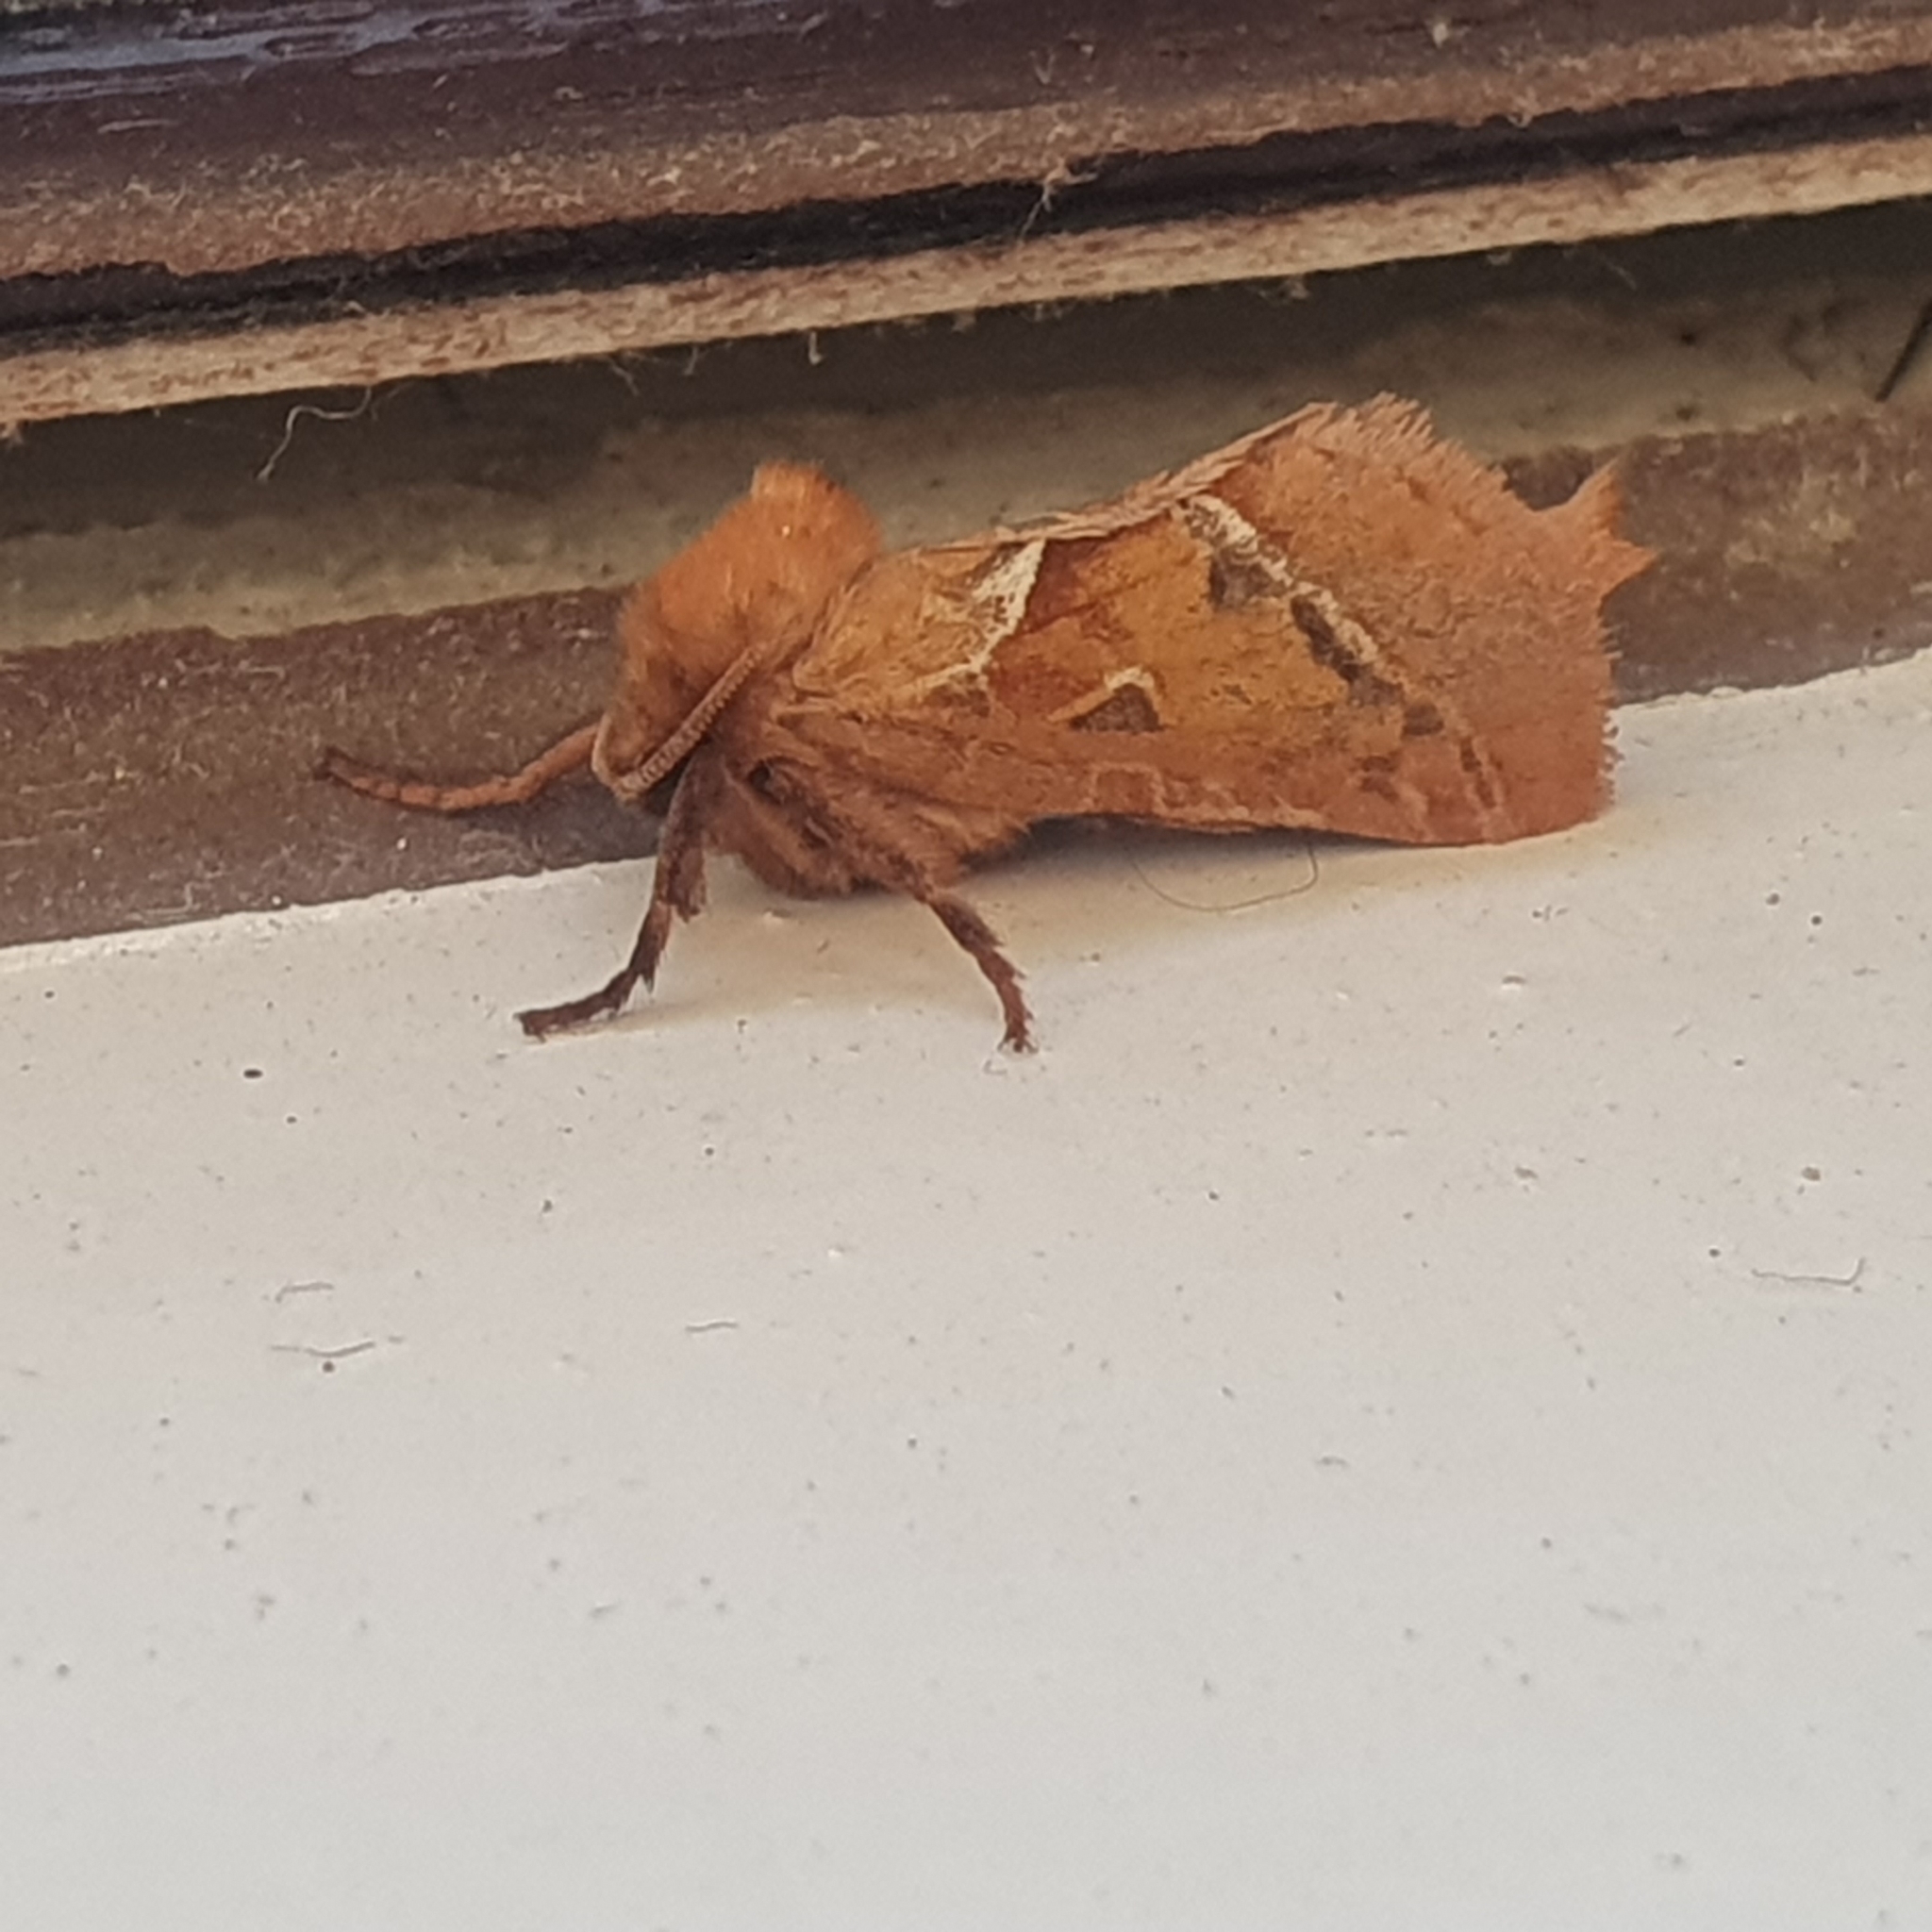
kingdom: Animalia
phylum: Arthropoda
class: Insecta
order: Lepidoptera
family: Hepialidae
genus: Triodia
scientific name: Triodia sylvina
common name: Orange swift
